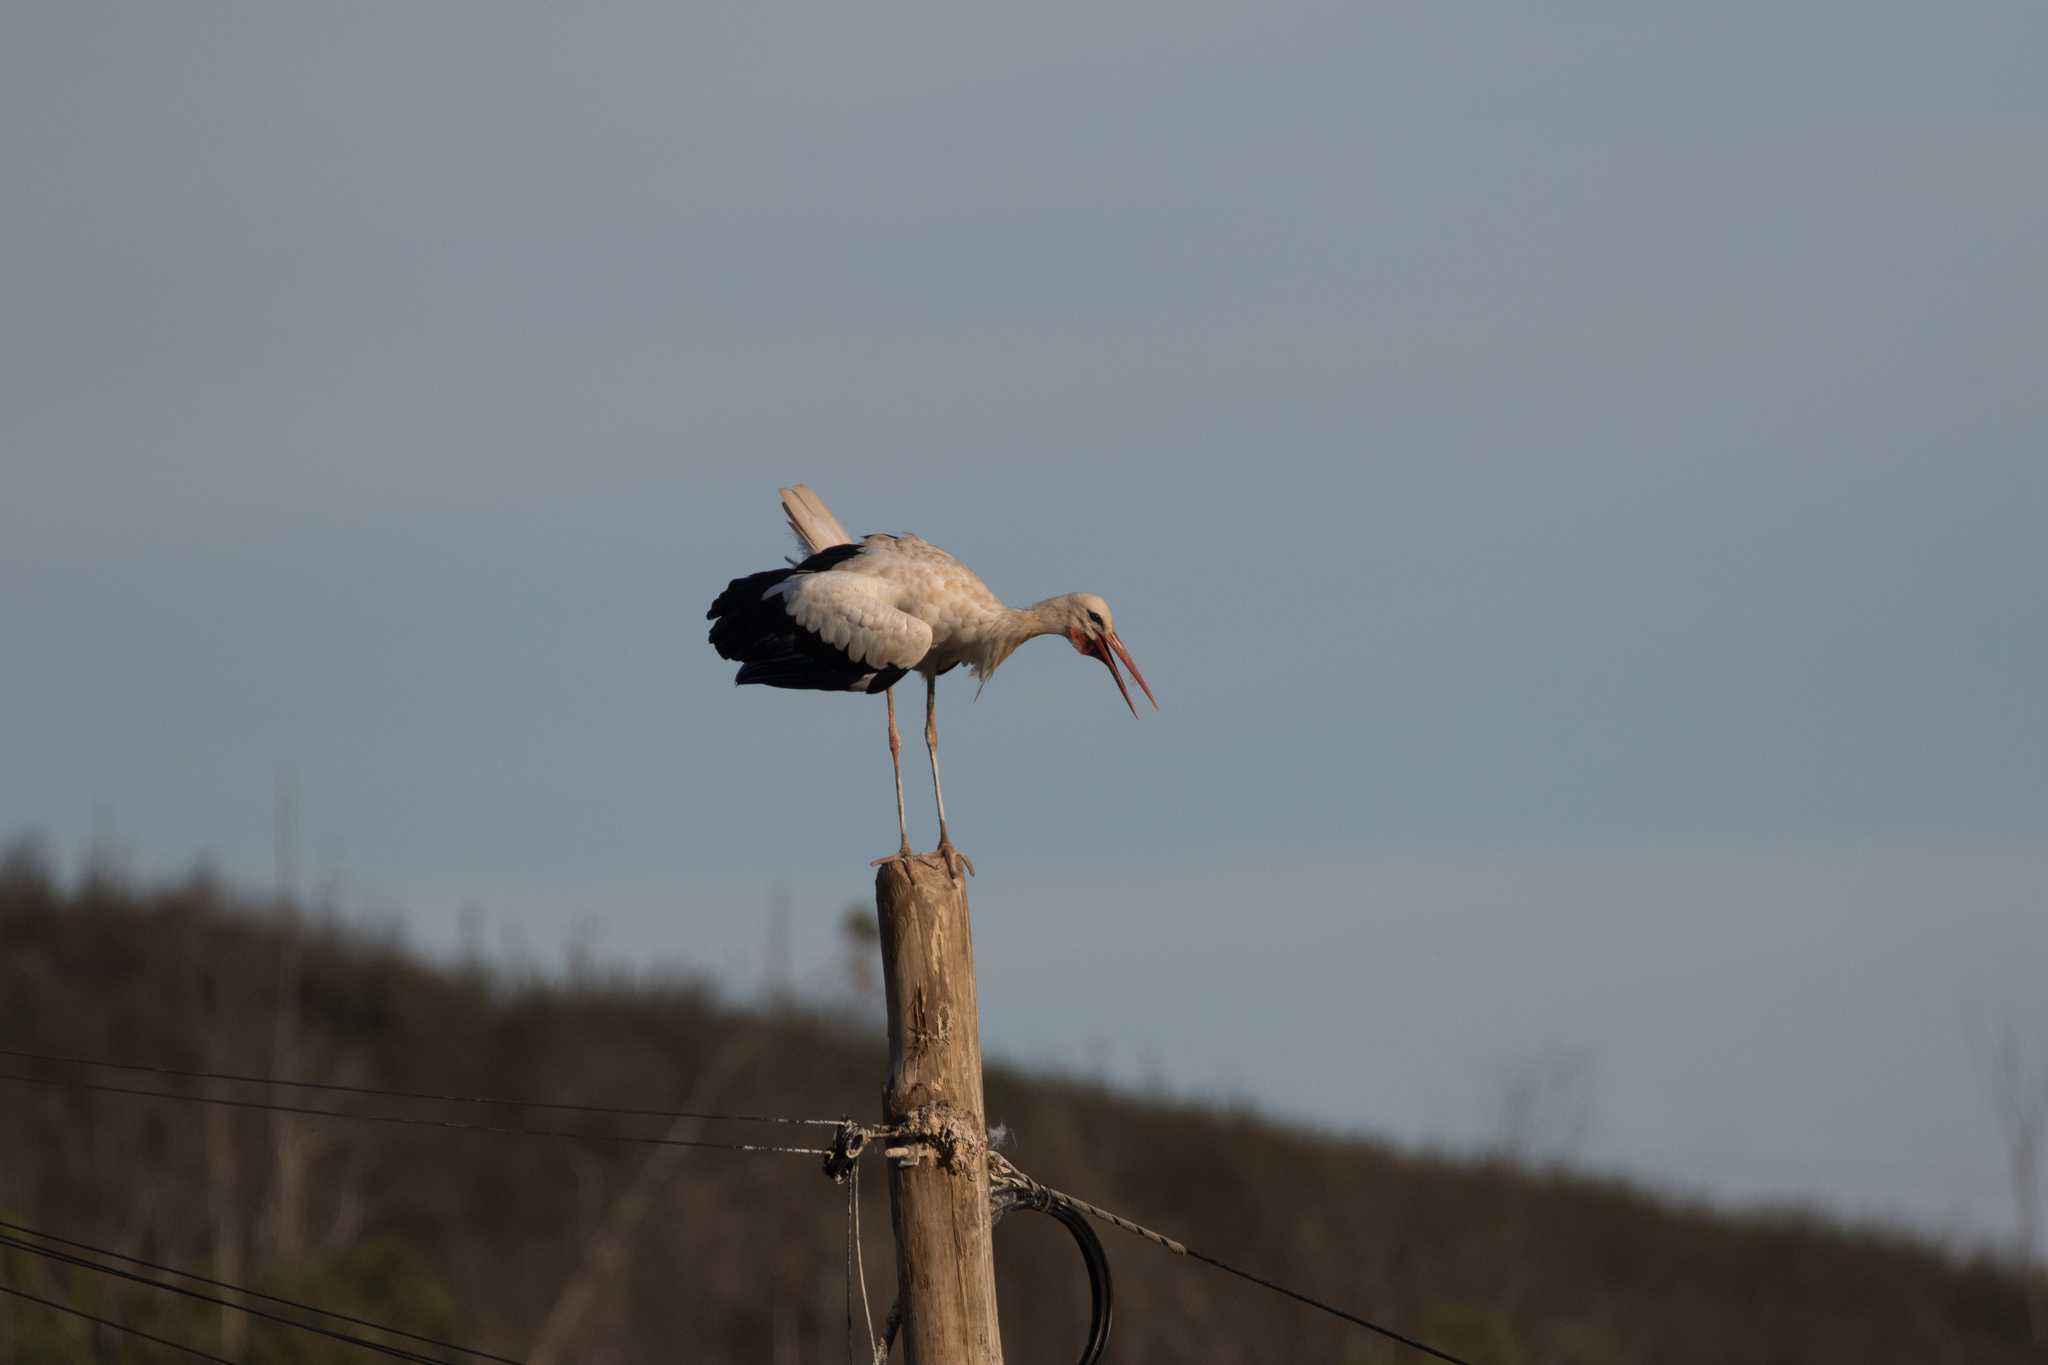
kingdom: Animalia
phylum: Chordata
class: Aves
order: Ciconiiformes
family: Ciconiidae
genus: Ciconia
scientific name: Ciconia ciconia
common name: White stork
